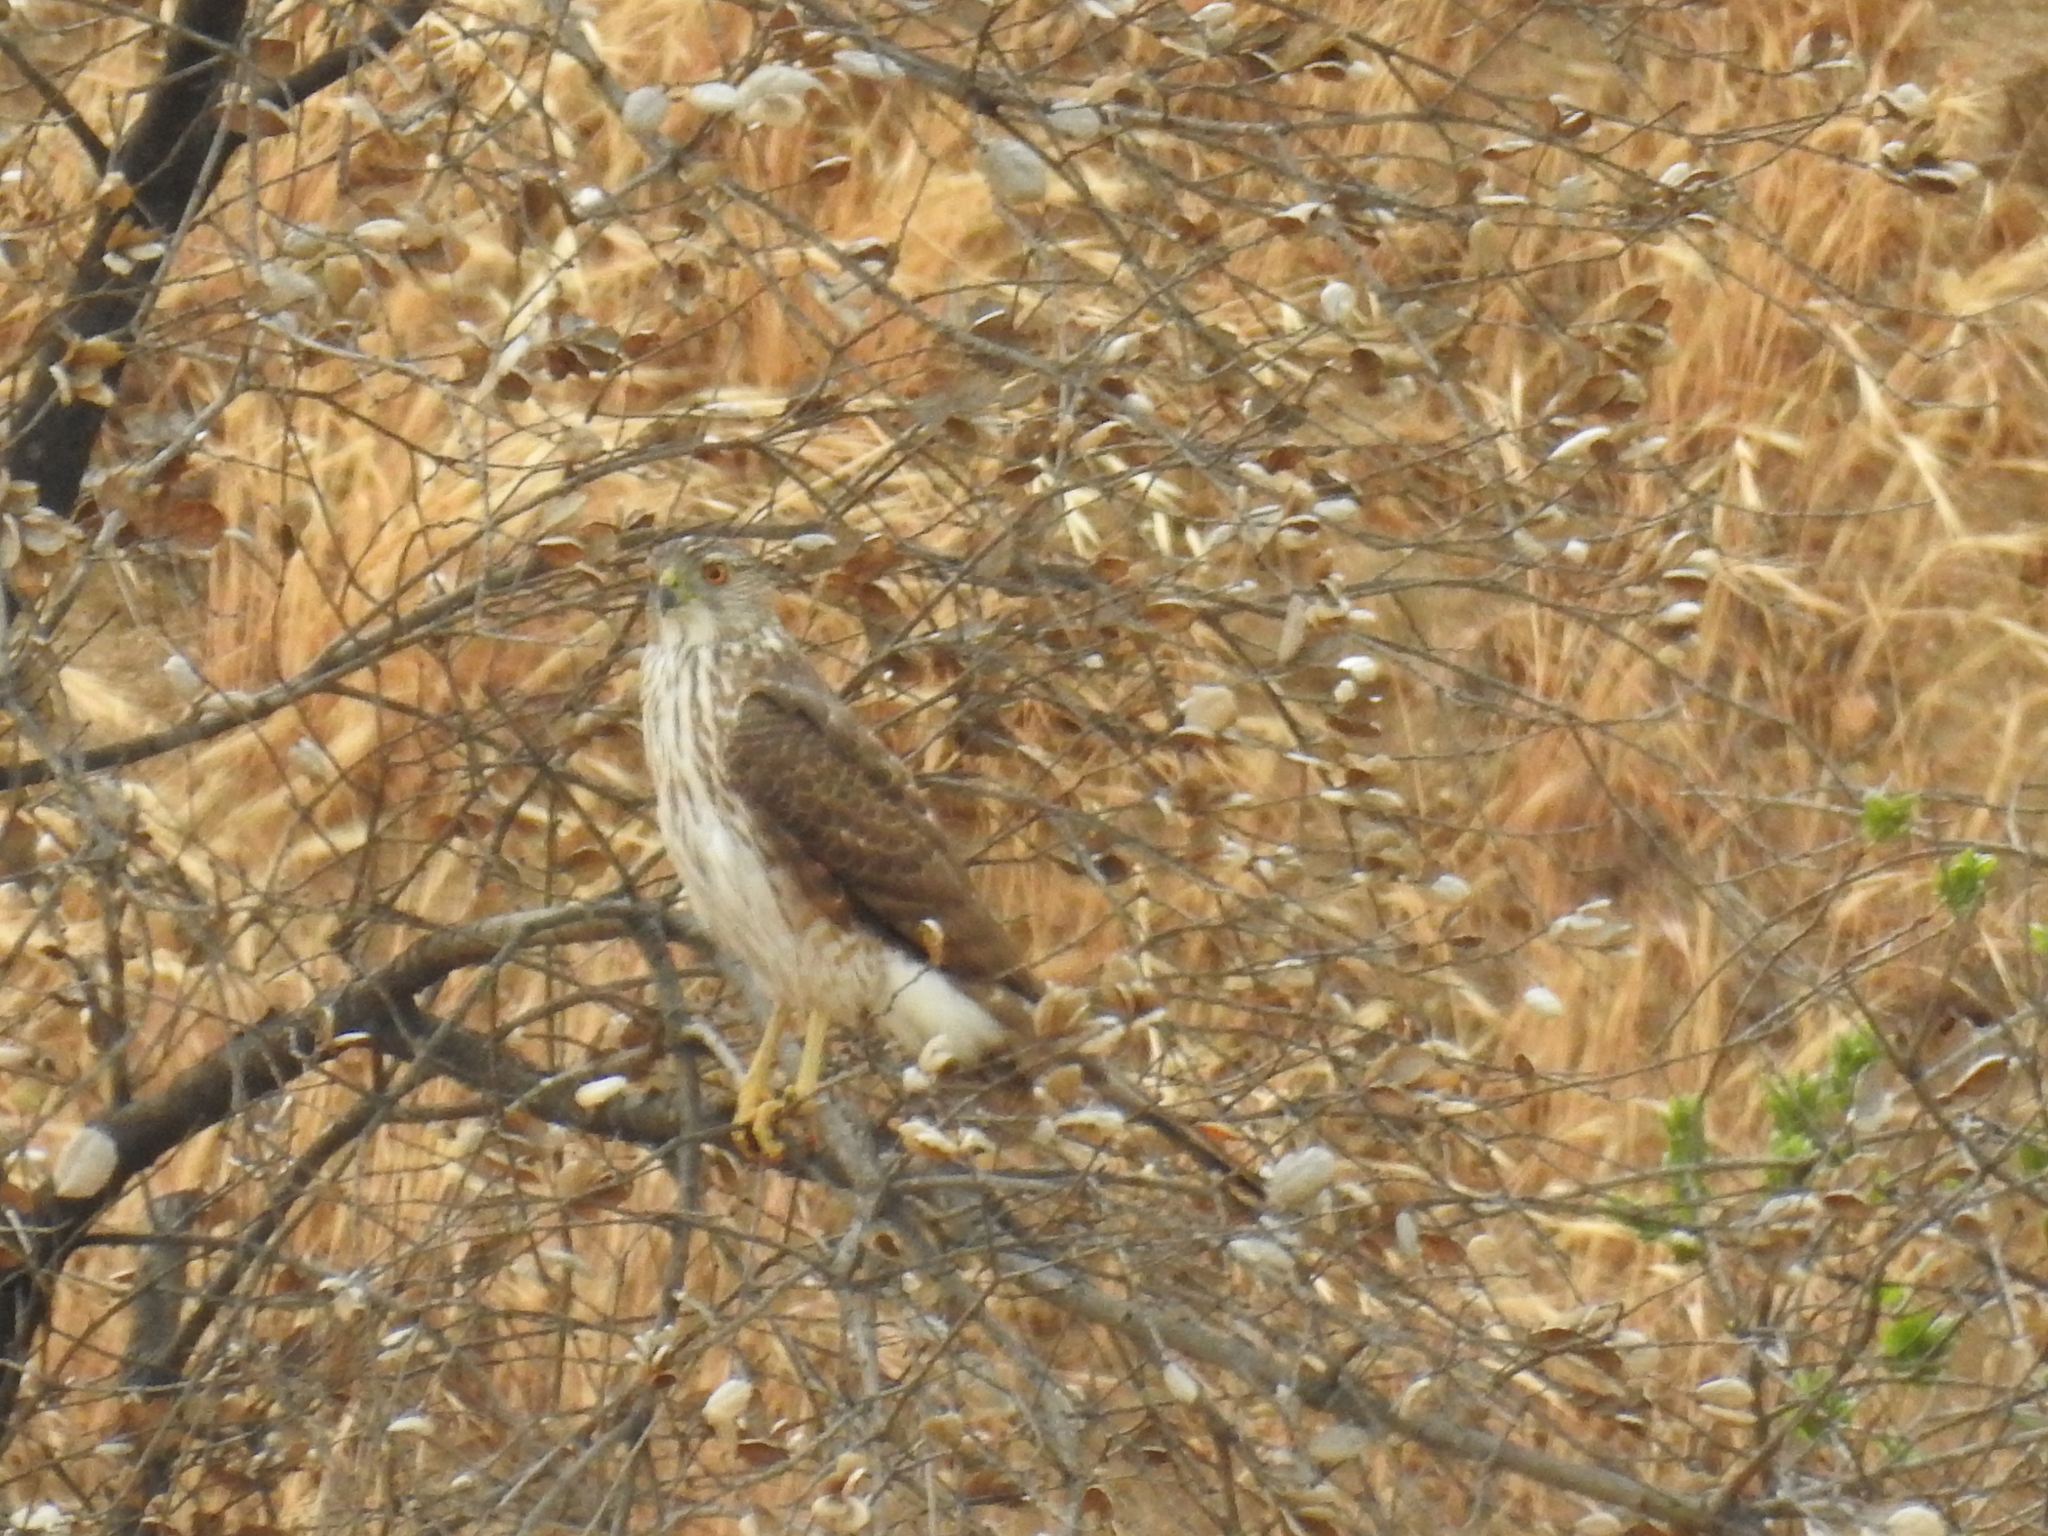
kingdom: Animalia
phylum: Chordata
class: Aves
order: Accipitriformes
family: Accipitridae
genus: Accipiter
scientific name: Accipiter cooperii
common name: Cooper's hawk
